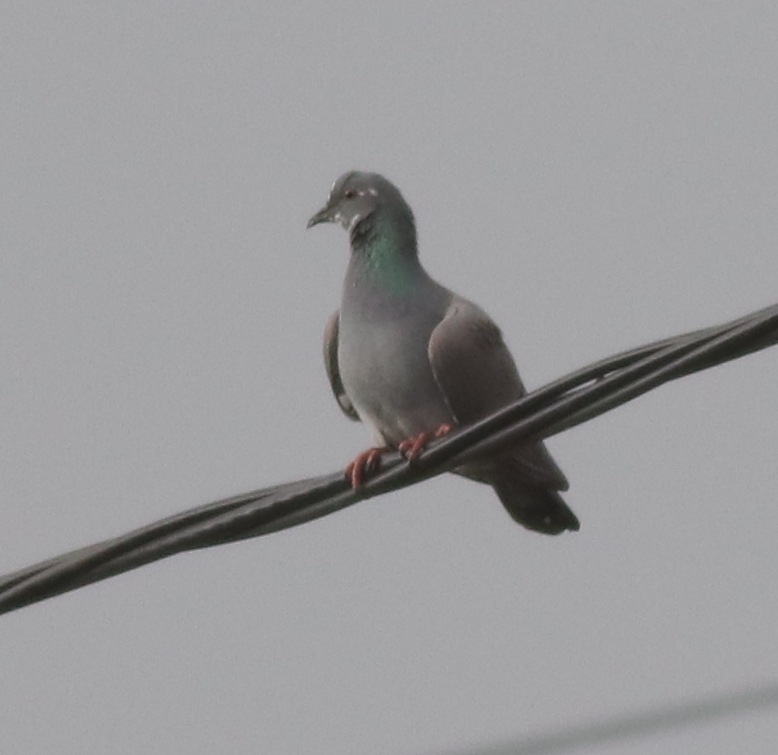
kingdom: Animalia
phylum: Chordata
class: Aves
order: Columbiformes
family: Columbidae
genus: Columba
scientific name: Columba livia
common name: Rock pigeon
